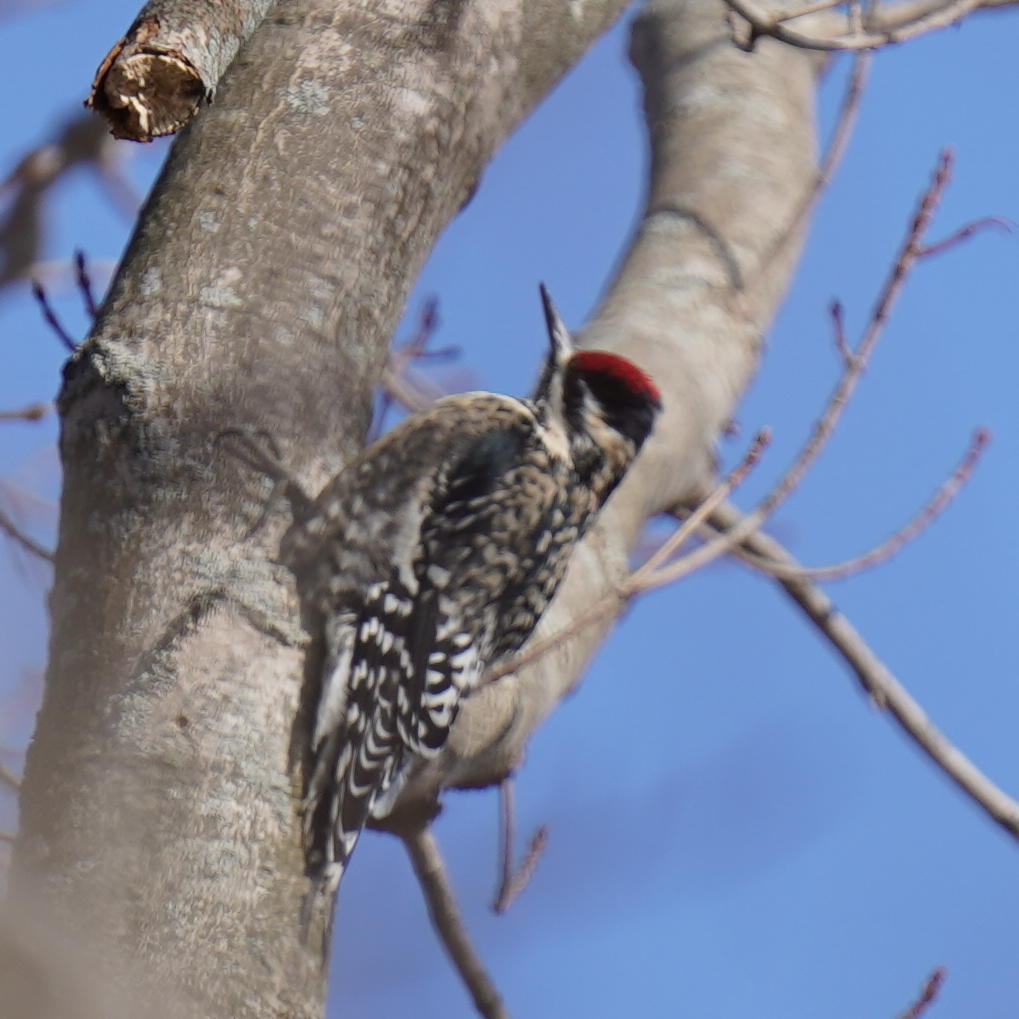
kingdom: Animalia
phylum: Chordata
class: Aves
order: Piciformes
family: Picidae
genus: Sphyrapicus
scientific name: Sphyrapicus varius
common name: Yellow-bellied sapsucker
